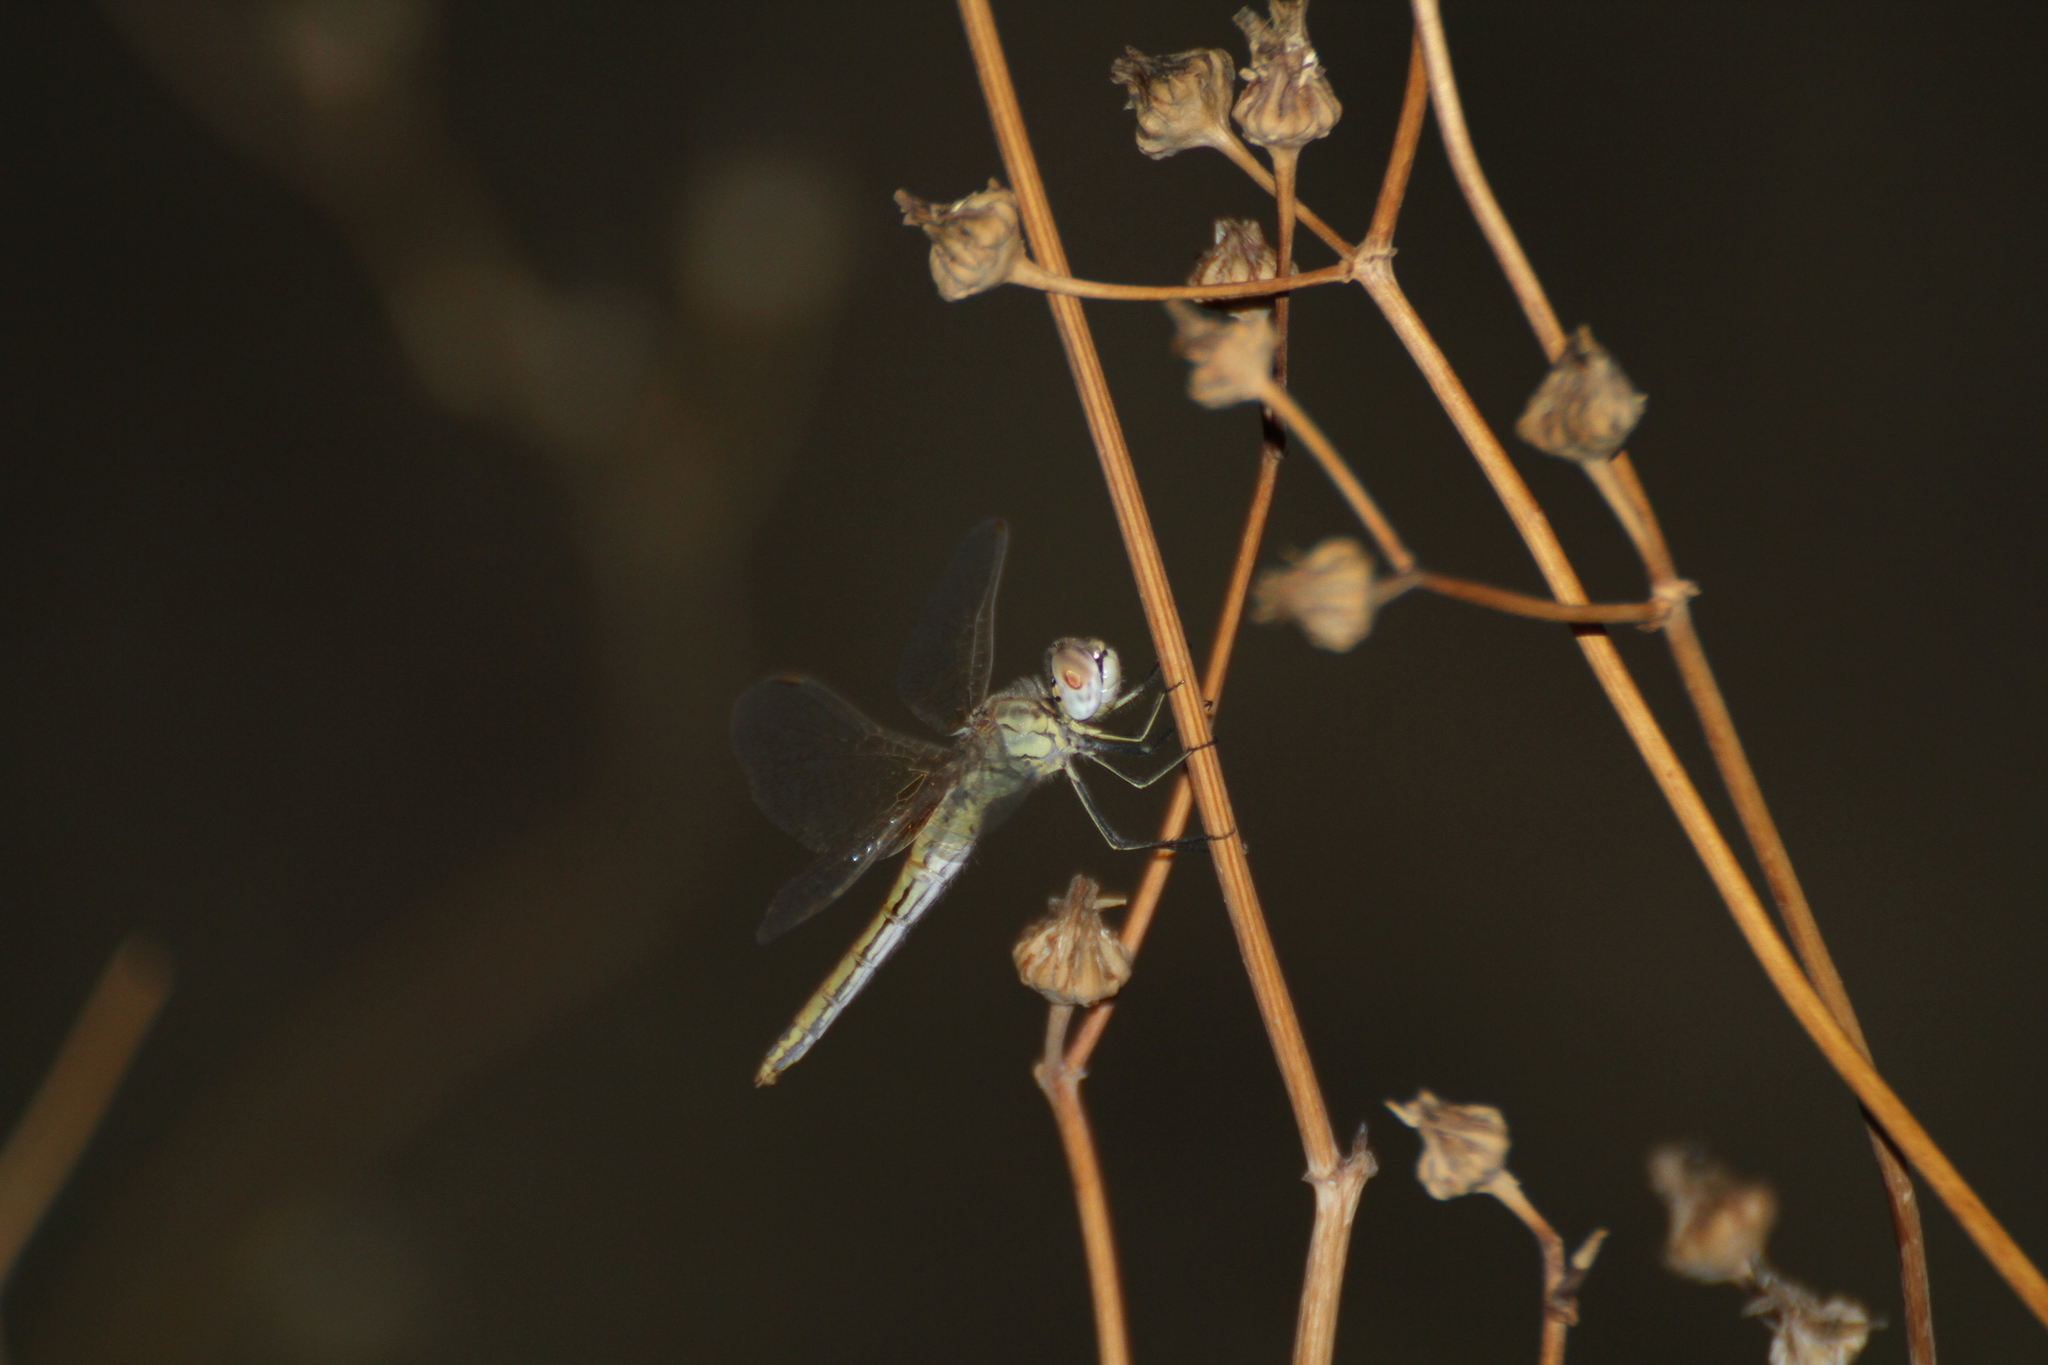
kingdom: Animalia
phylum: Arthropoda
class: Insecta
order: Odonata
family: Libellulidae
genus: Sympetrum
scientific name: Sympetrum fonscolombii
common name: Red-veined darter
